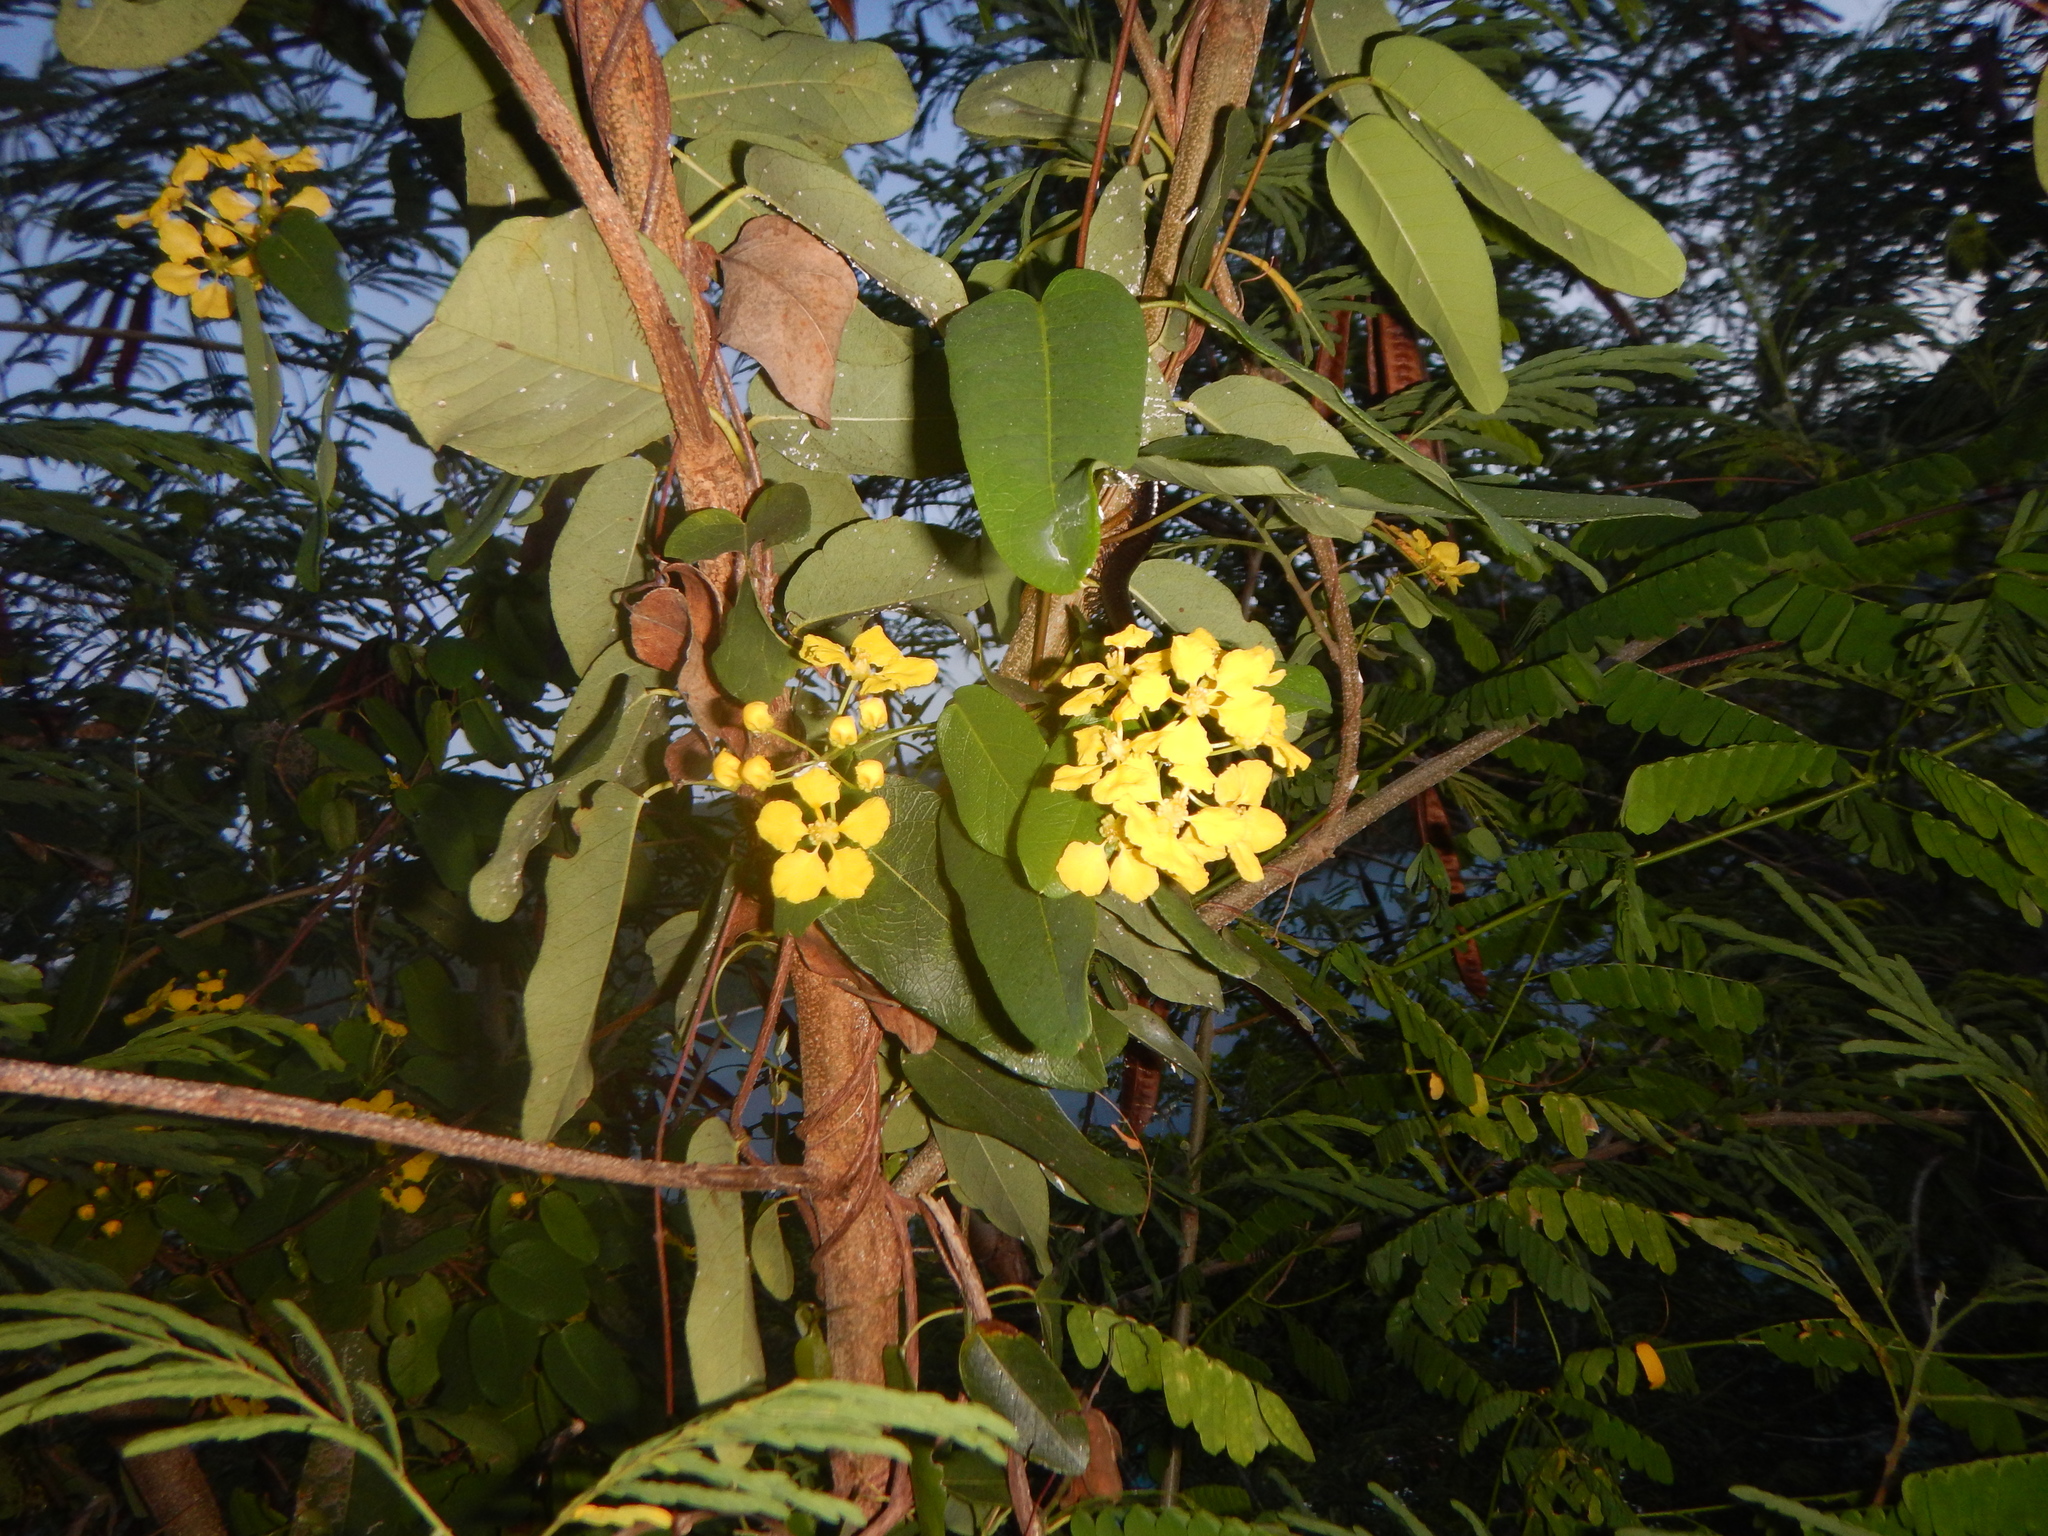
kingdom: Plantae
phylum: Tracheophyta
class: Magnoliopsida
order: Malpighiales
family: Malpighiaceae
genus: Stigmaphyllon
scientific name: Stigmaphyllon emarginatum
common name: Monarch amazonvine
